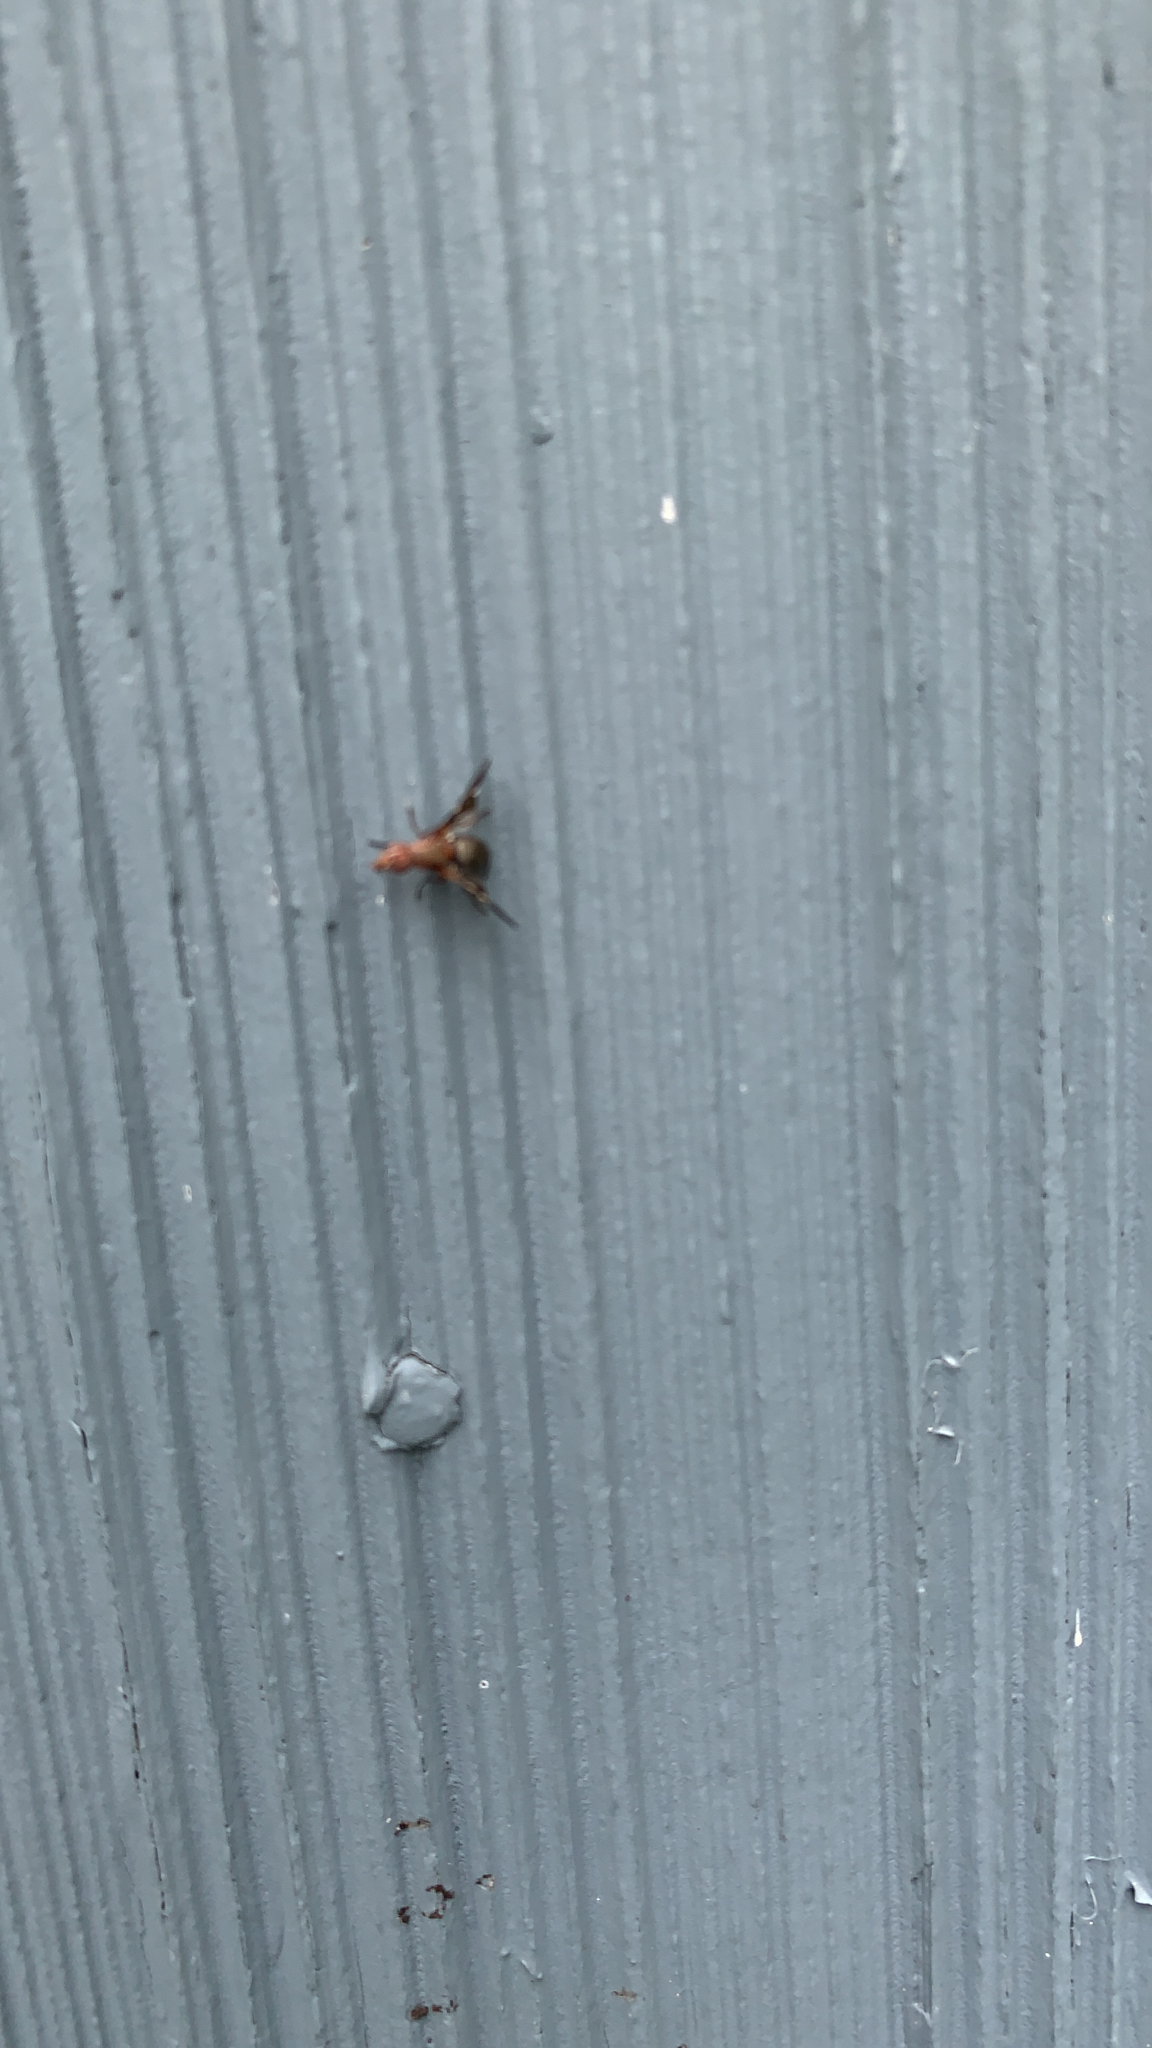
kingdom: Animalia
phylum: Arthropoda
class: Insecta
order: Diptera
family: Ulidiidae
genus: Delphinia
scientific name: Delphinia picta
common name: Common picture-winged fly
